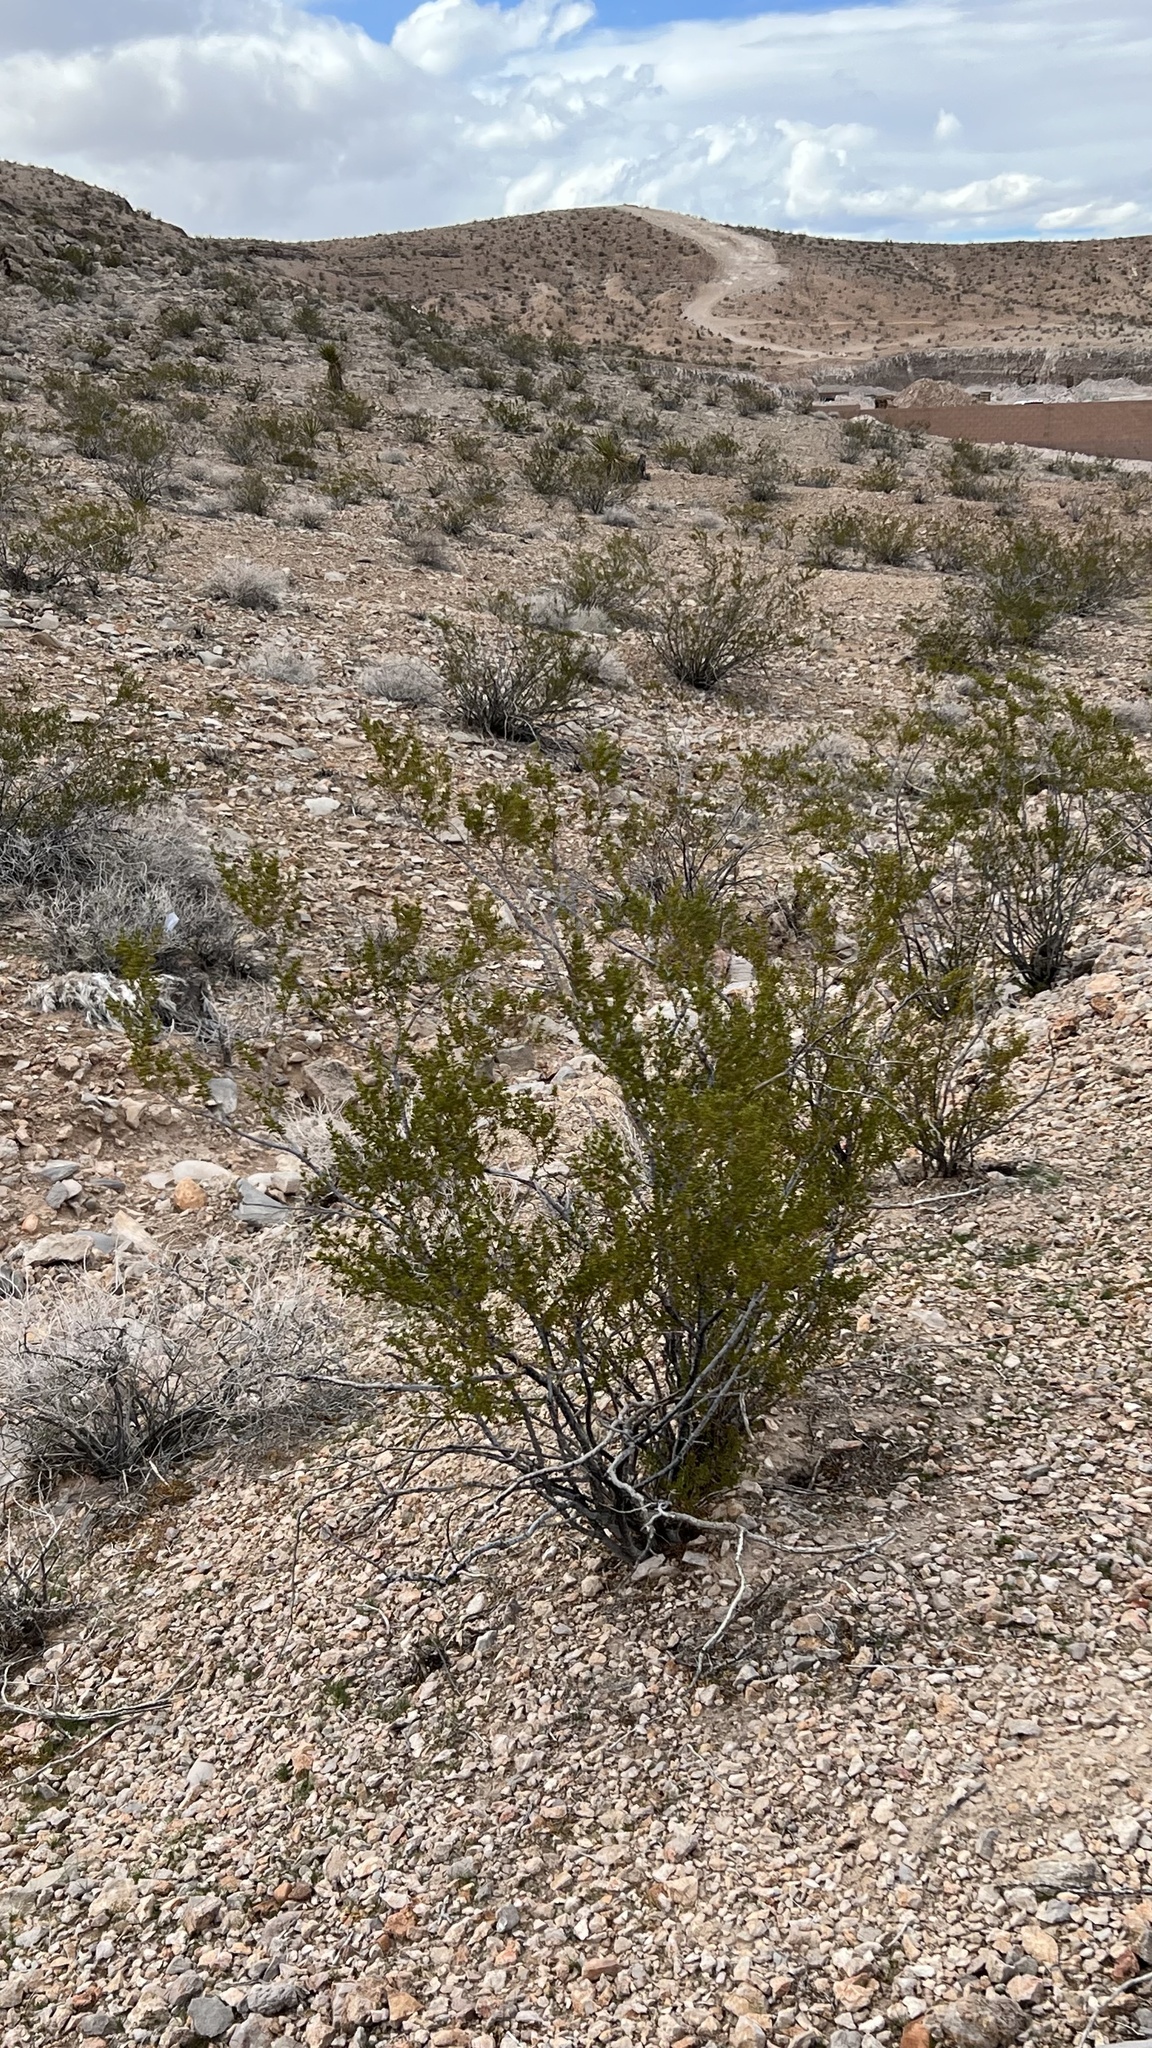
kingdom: Plantae
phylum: Tracheophyta
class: Magnoliopsida
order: Zygophyllales
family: Zygophyllaceae
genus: Larrea
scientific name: Larrea tridentata
